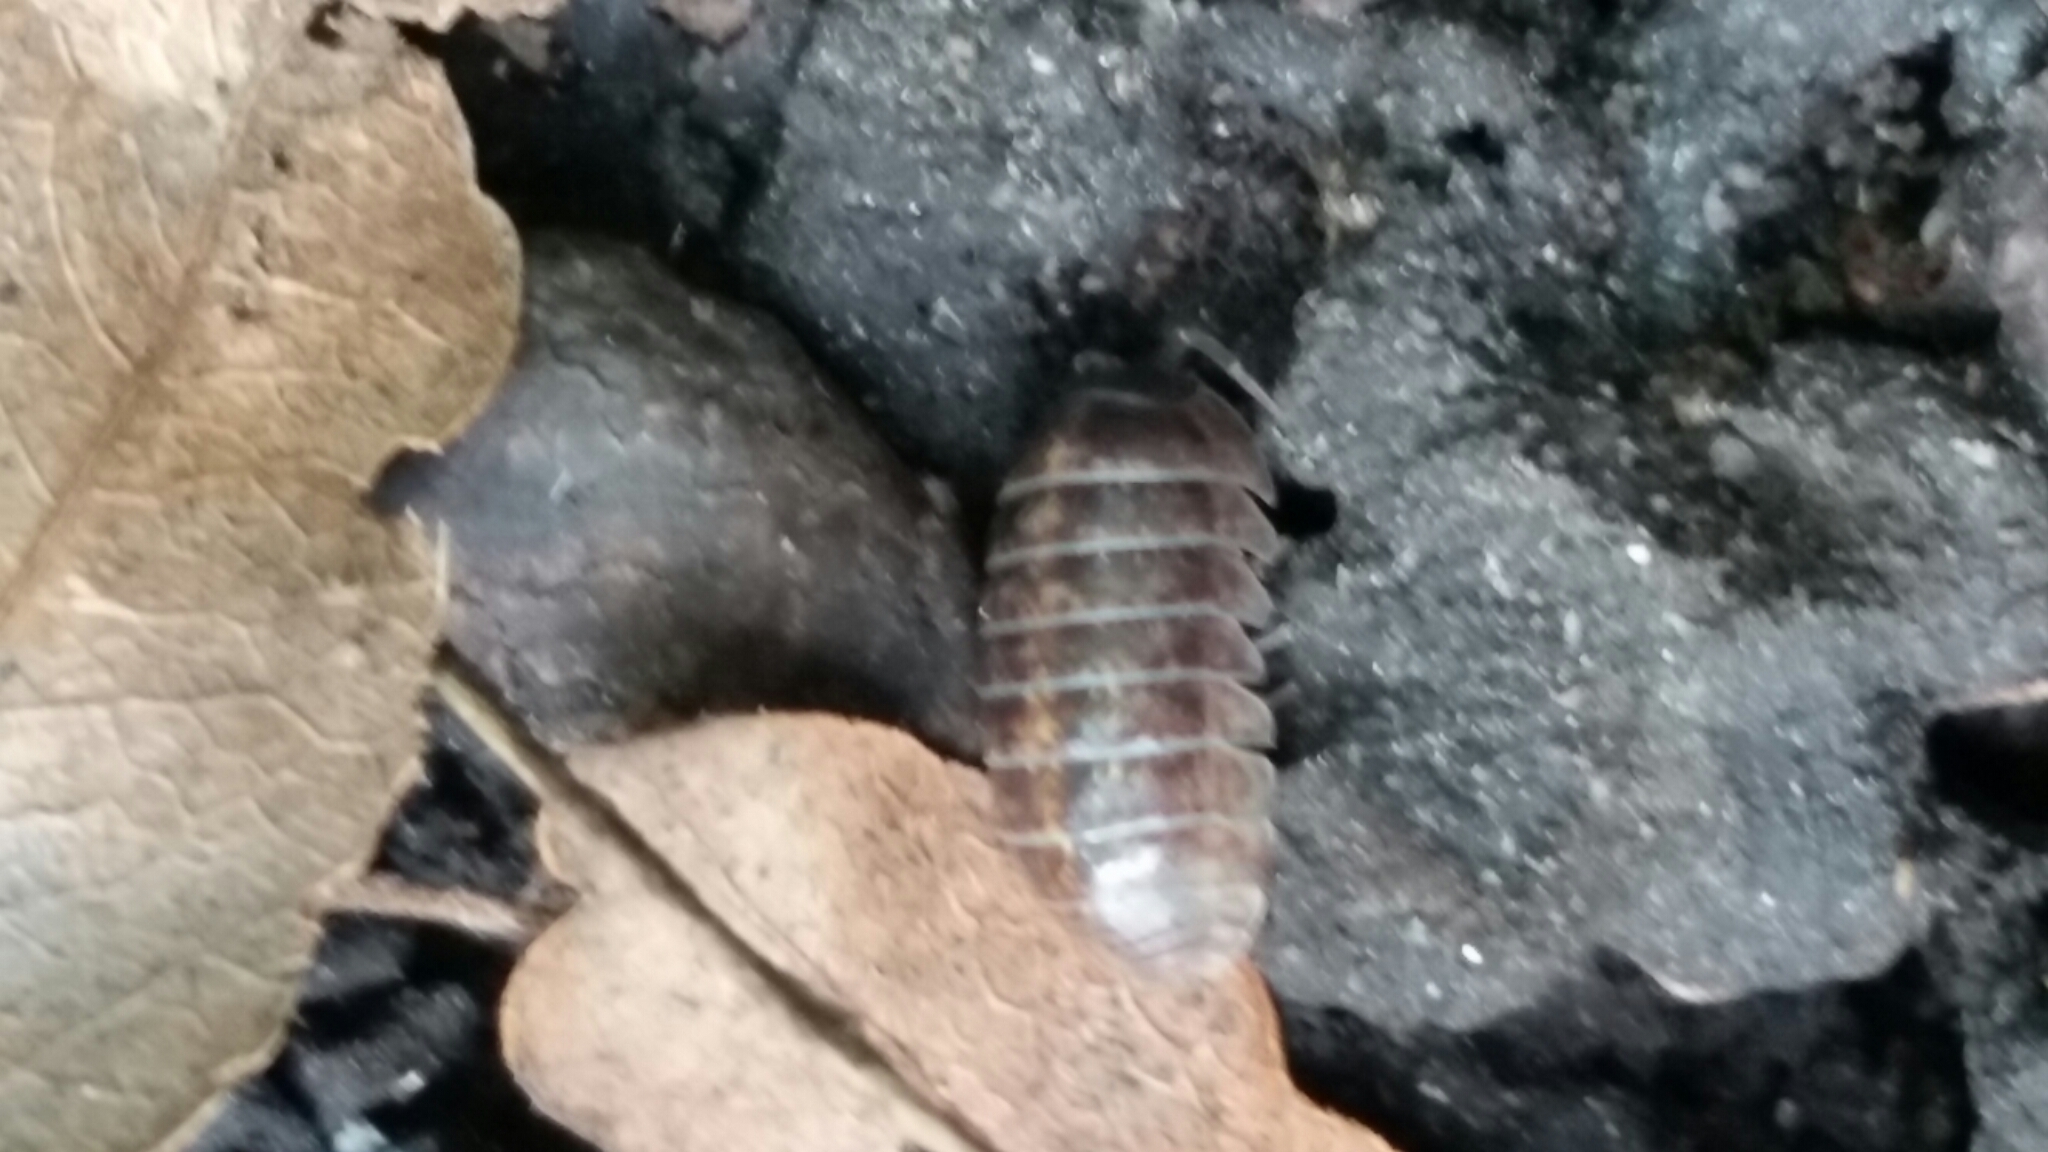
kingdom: Animalia
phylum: Arthropoda
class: Malacostraca
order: Isopoda
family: Armadillidiidae
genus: Armadillidium
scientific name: Armadillidium vulgare
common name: Common pill woodlouse
